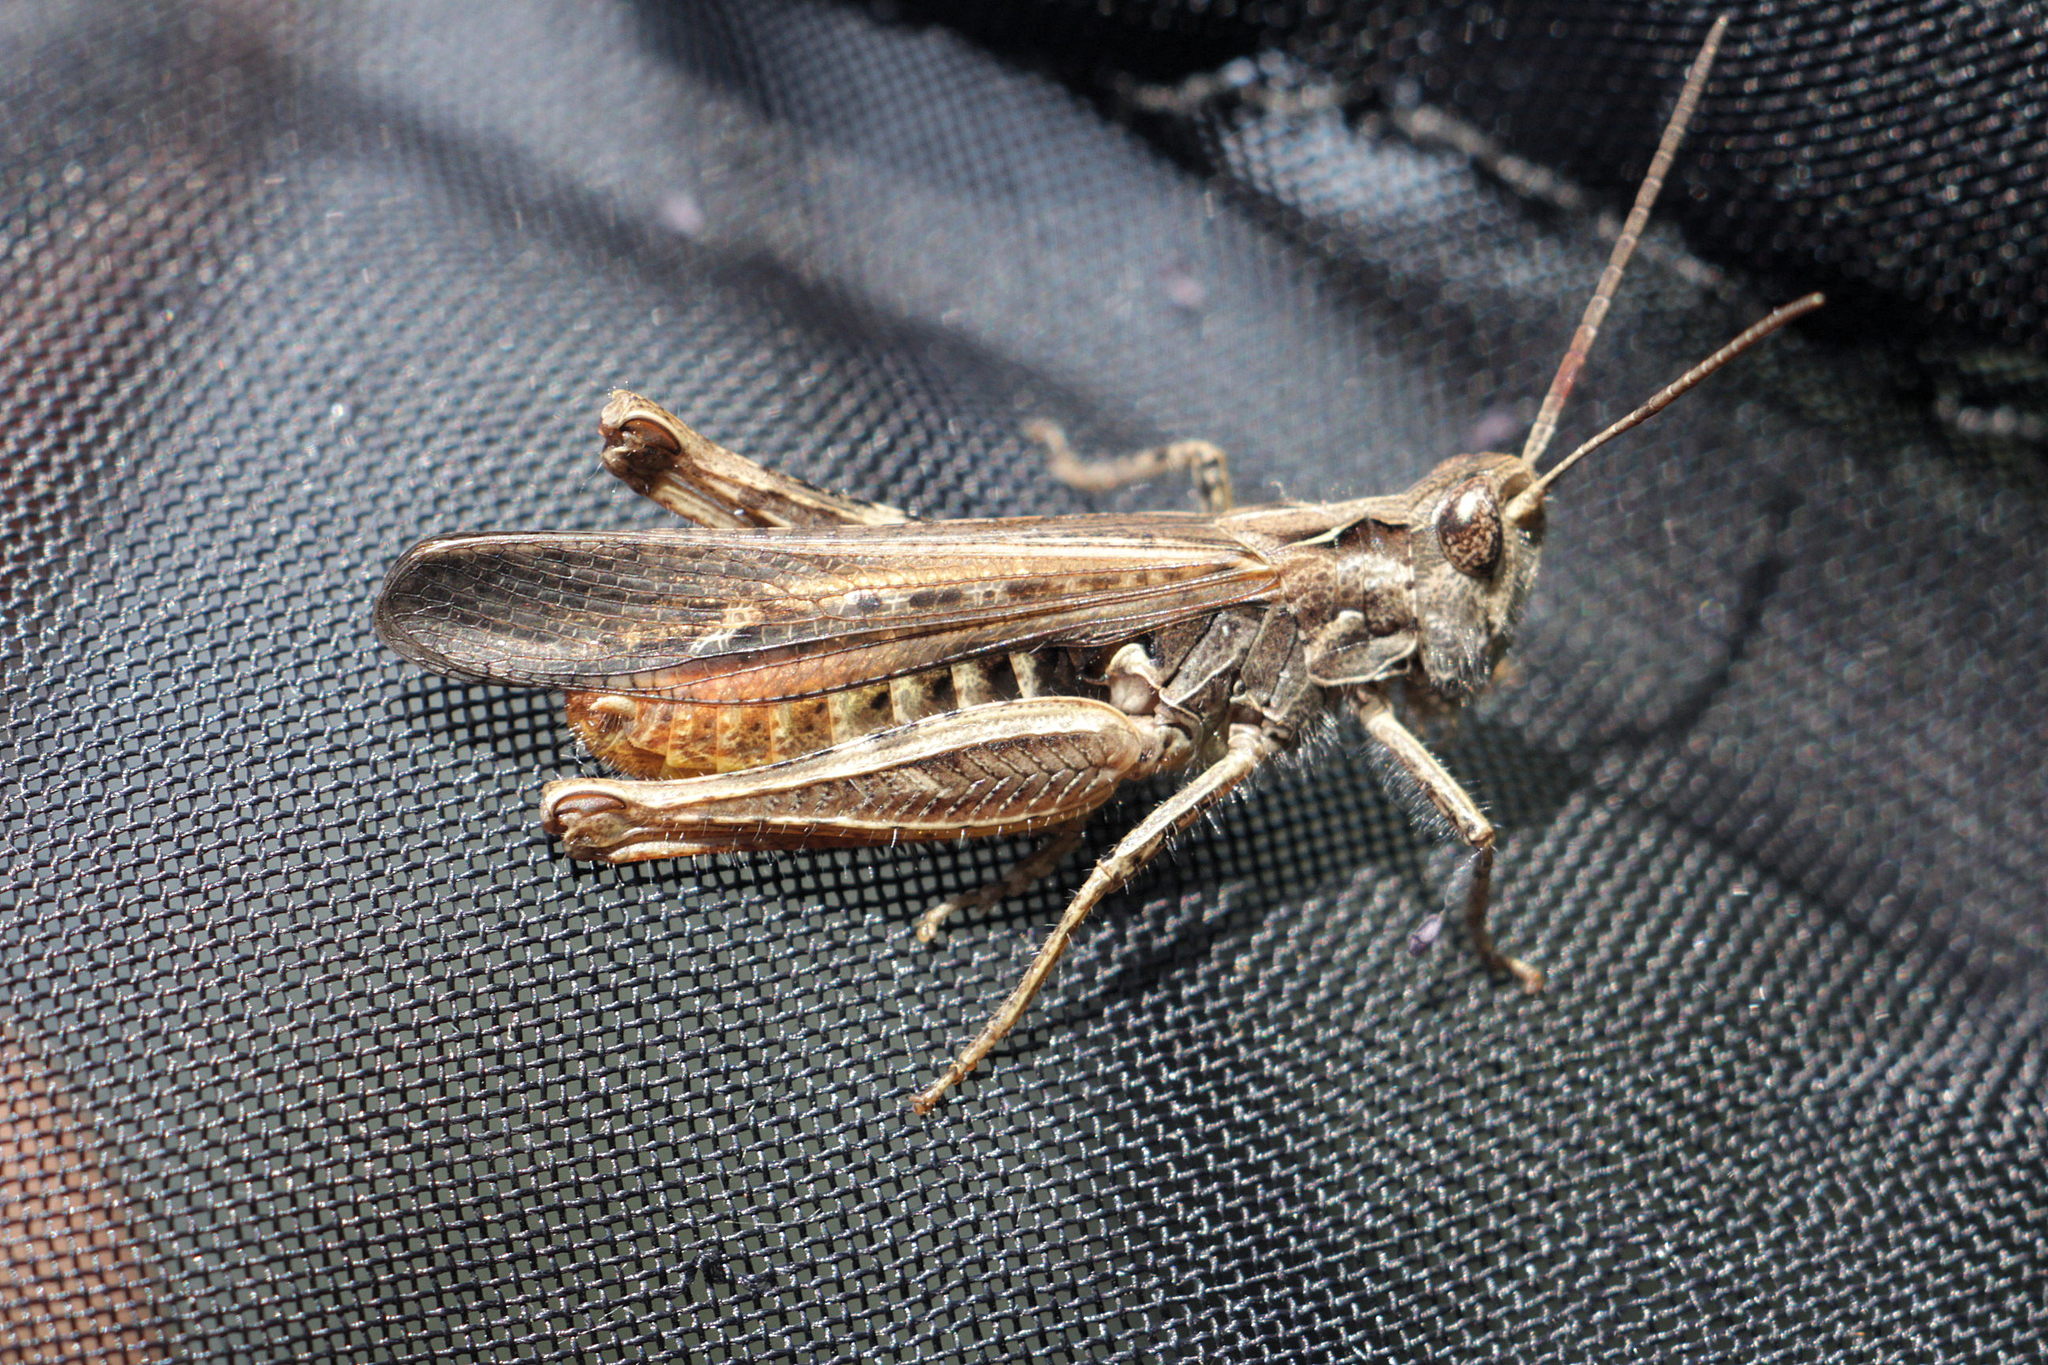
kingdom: Animalia
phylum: Arthropoda
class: Insecta
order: Orthoptera
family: Acrididae
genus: Chorthippus
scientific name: Chorthippus brunneus
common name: Field grasshopper
